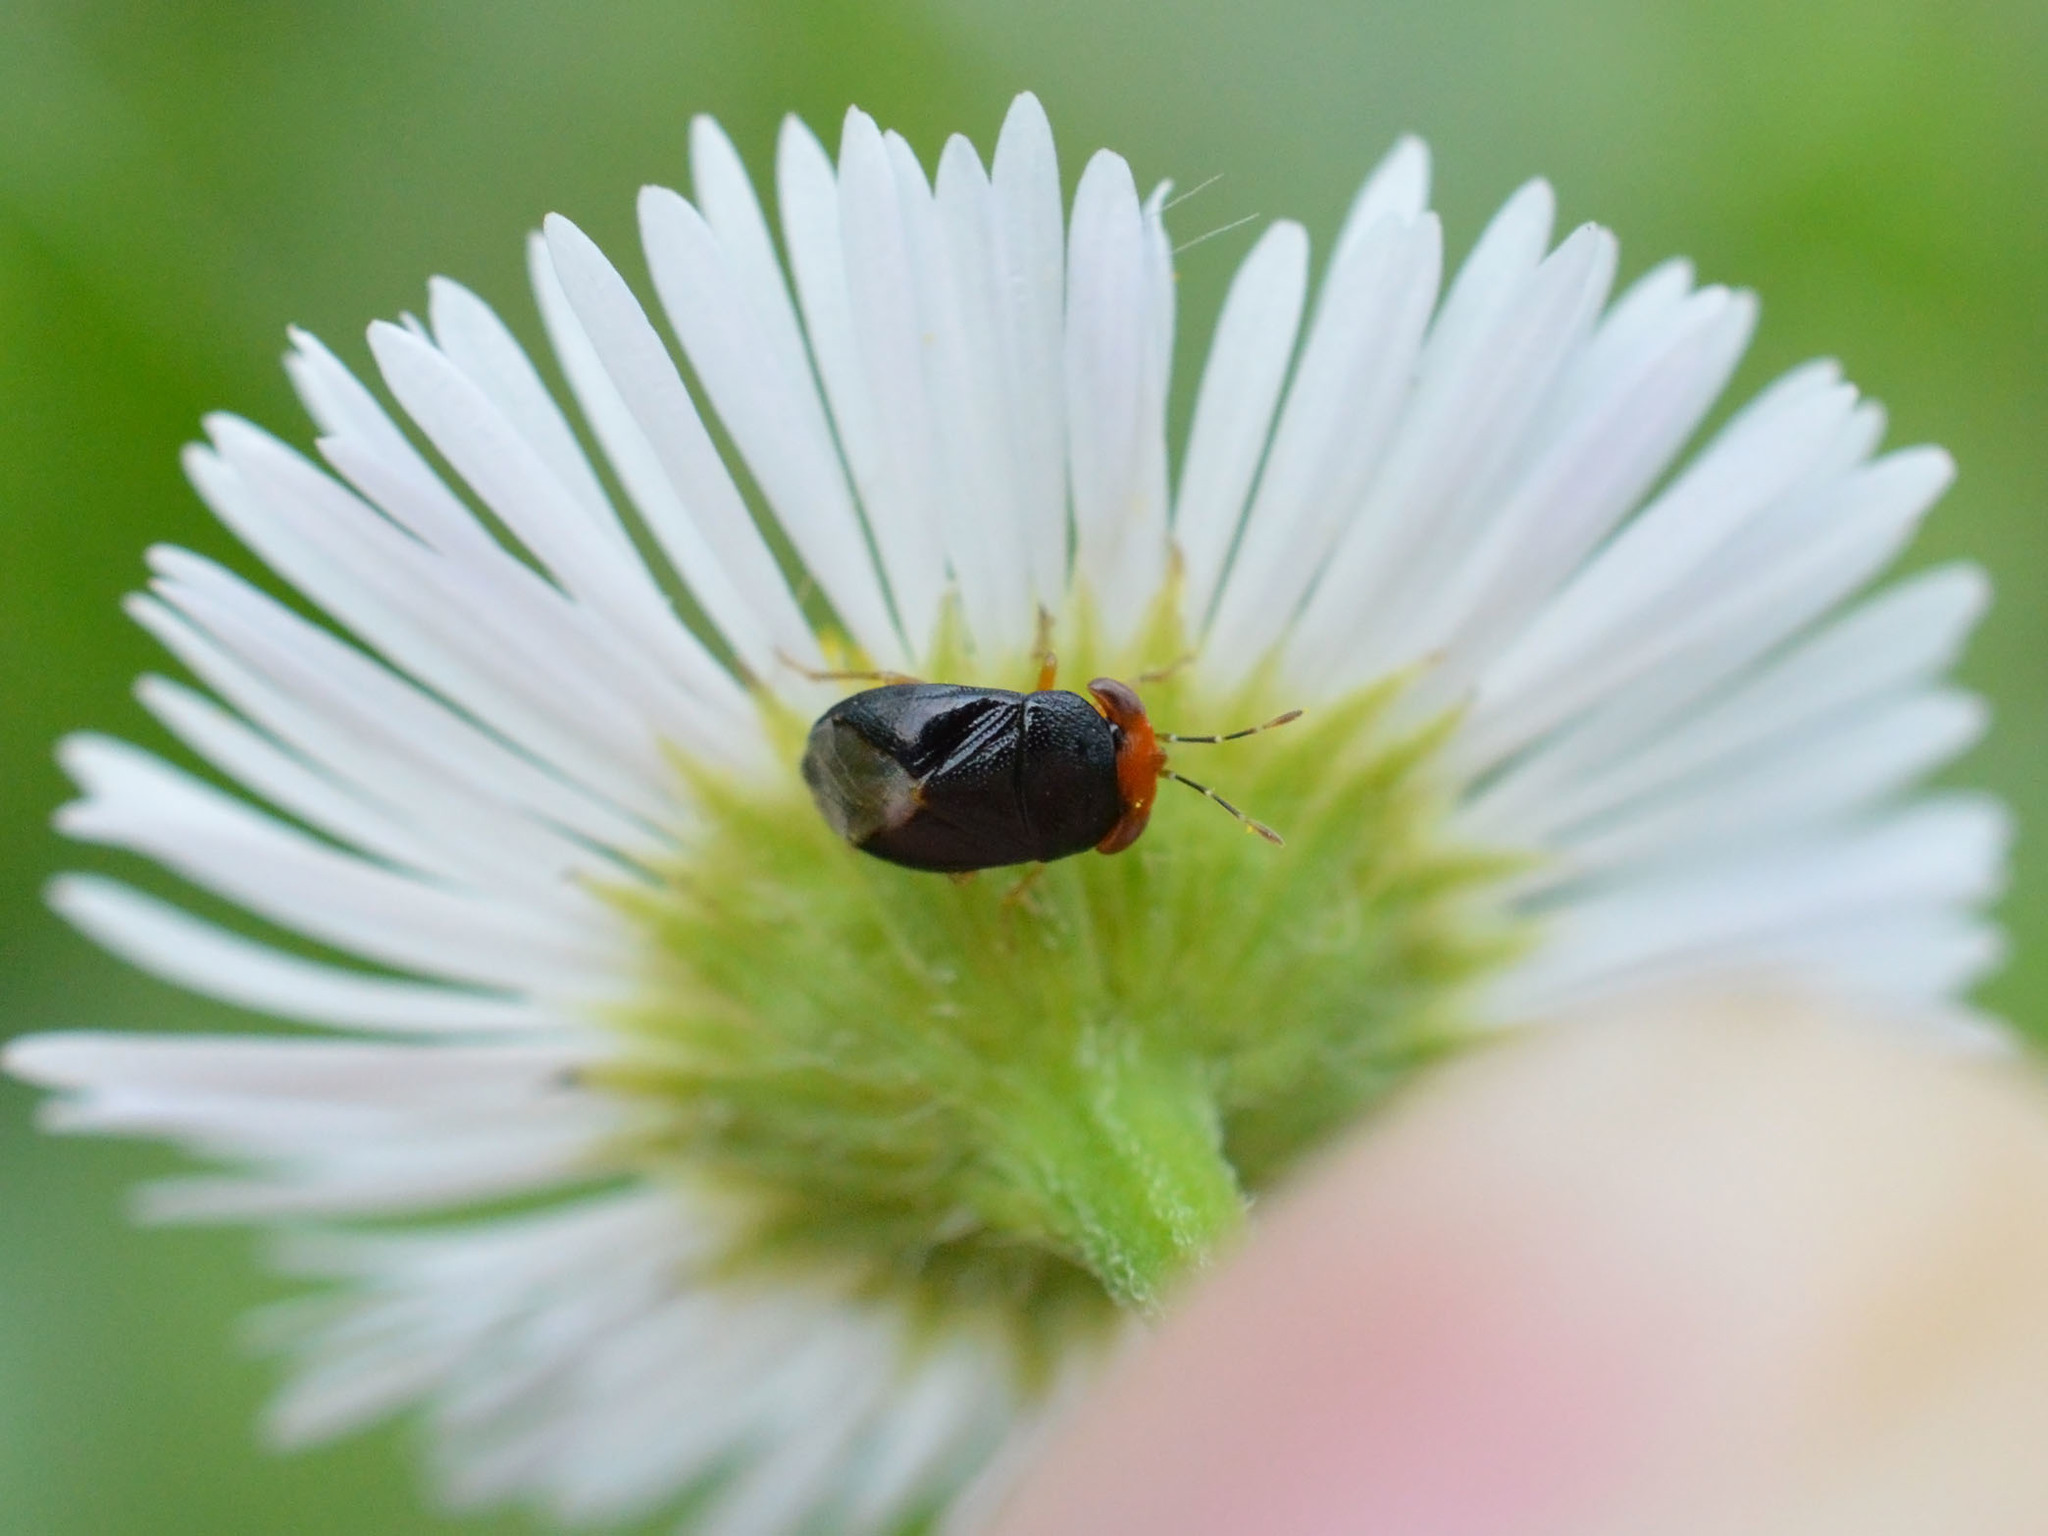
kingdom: Animalia
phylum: Arthropoda
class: Insecta
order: Hemiptera
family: Geocoridae
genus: Geocoris
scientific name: Geocoris erythrocephala
